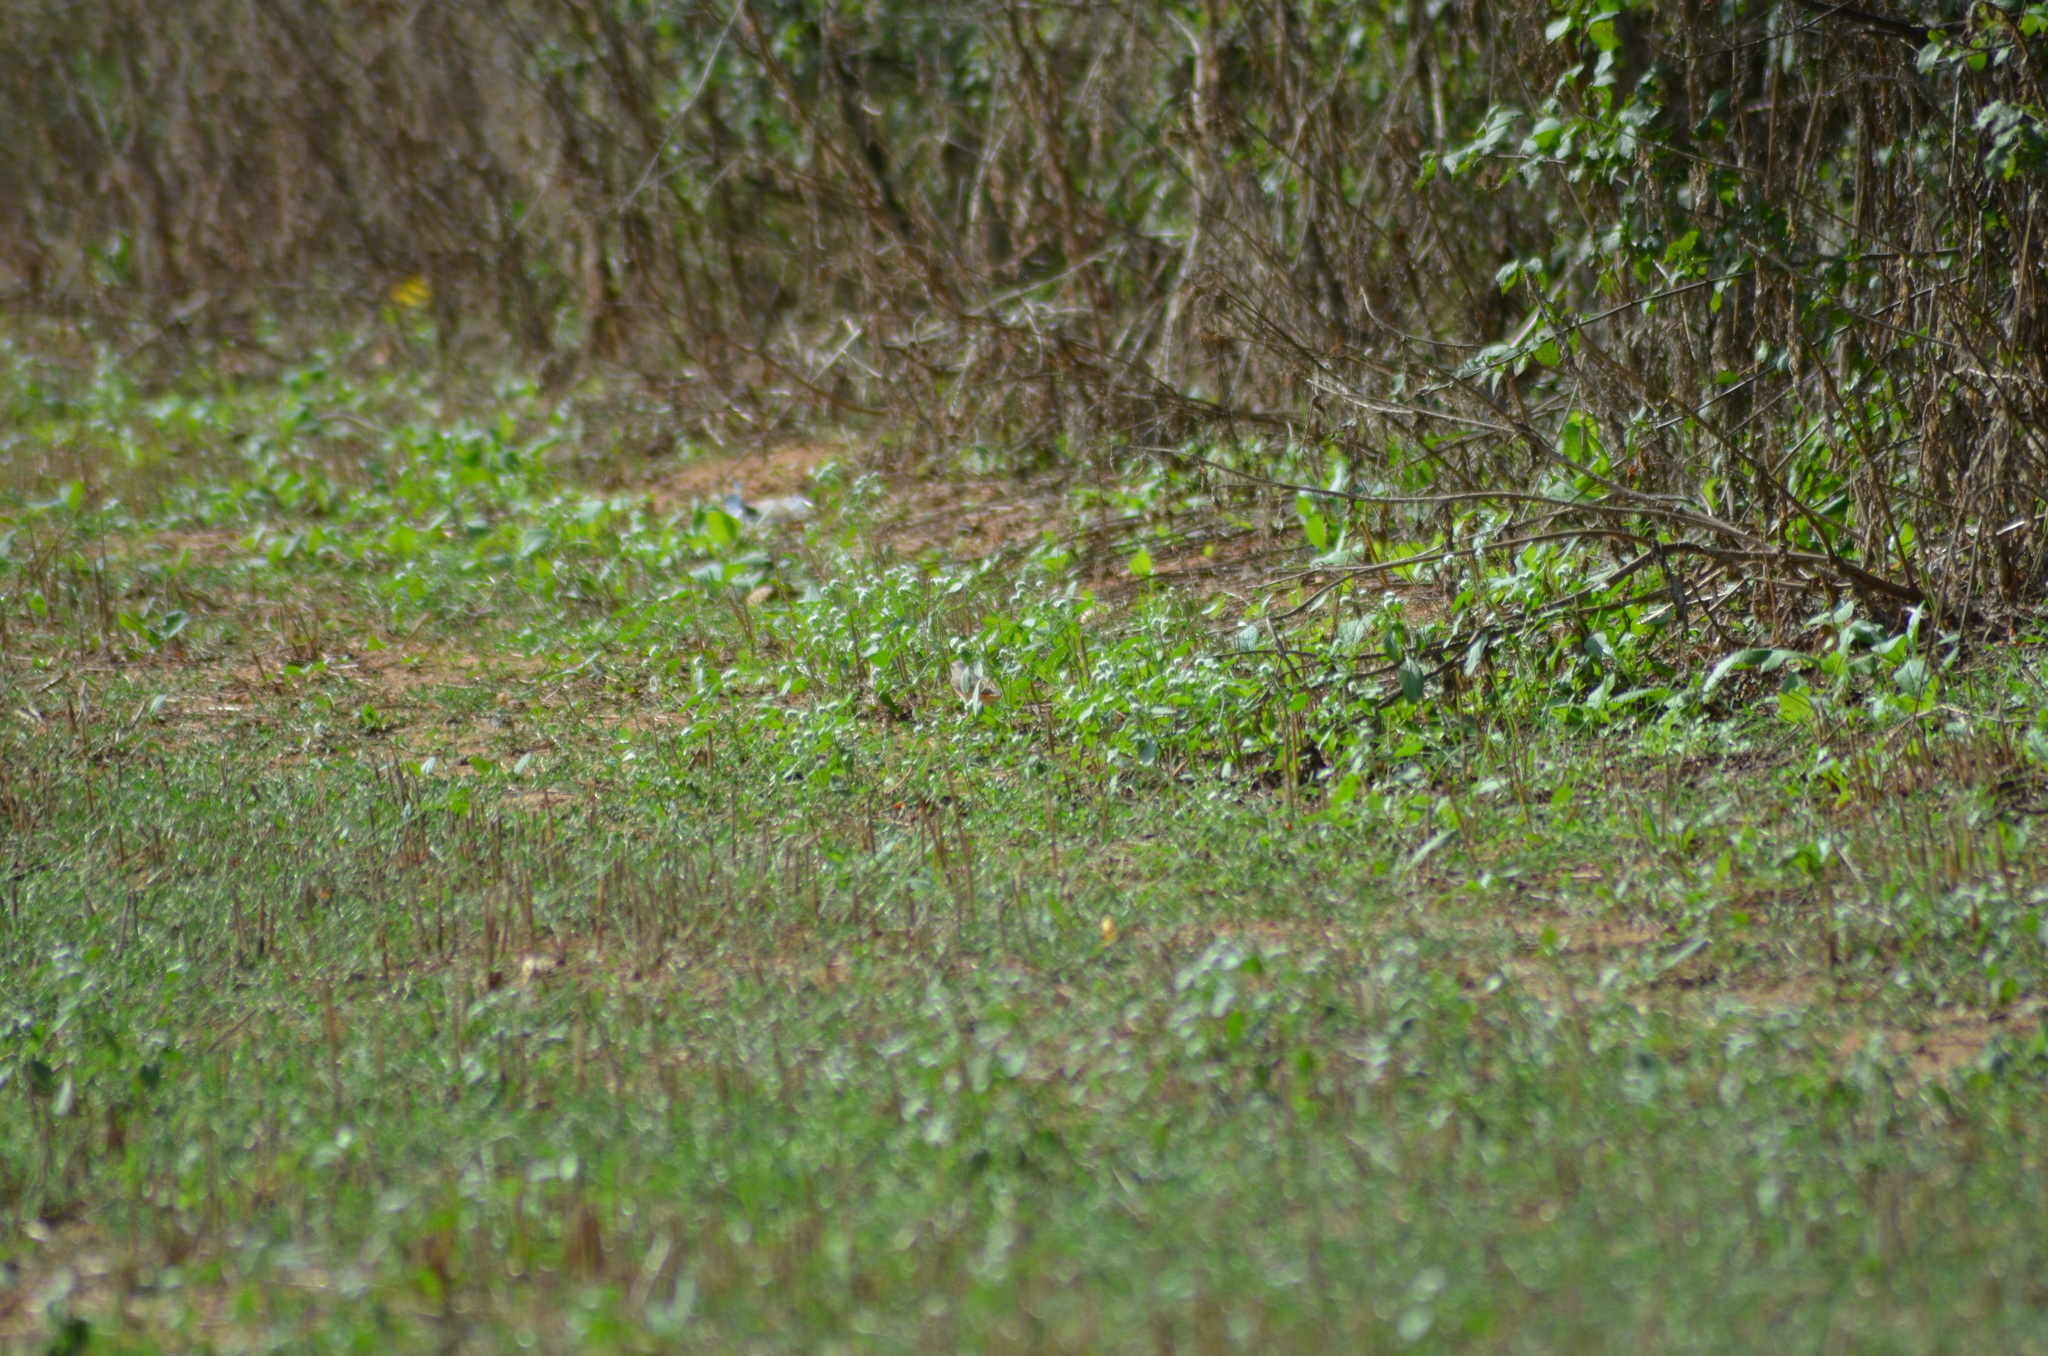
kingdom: Animalia
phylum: Chordata
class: Aves
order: Passeriformes
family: Muscicapidae
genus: Phoenicurus
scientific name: Phoenicurus phoenicurus
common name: Common redstart
